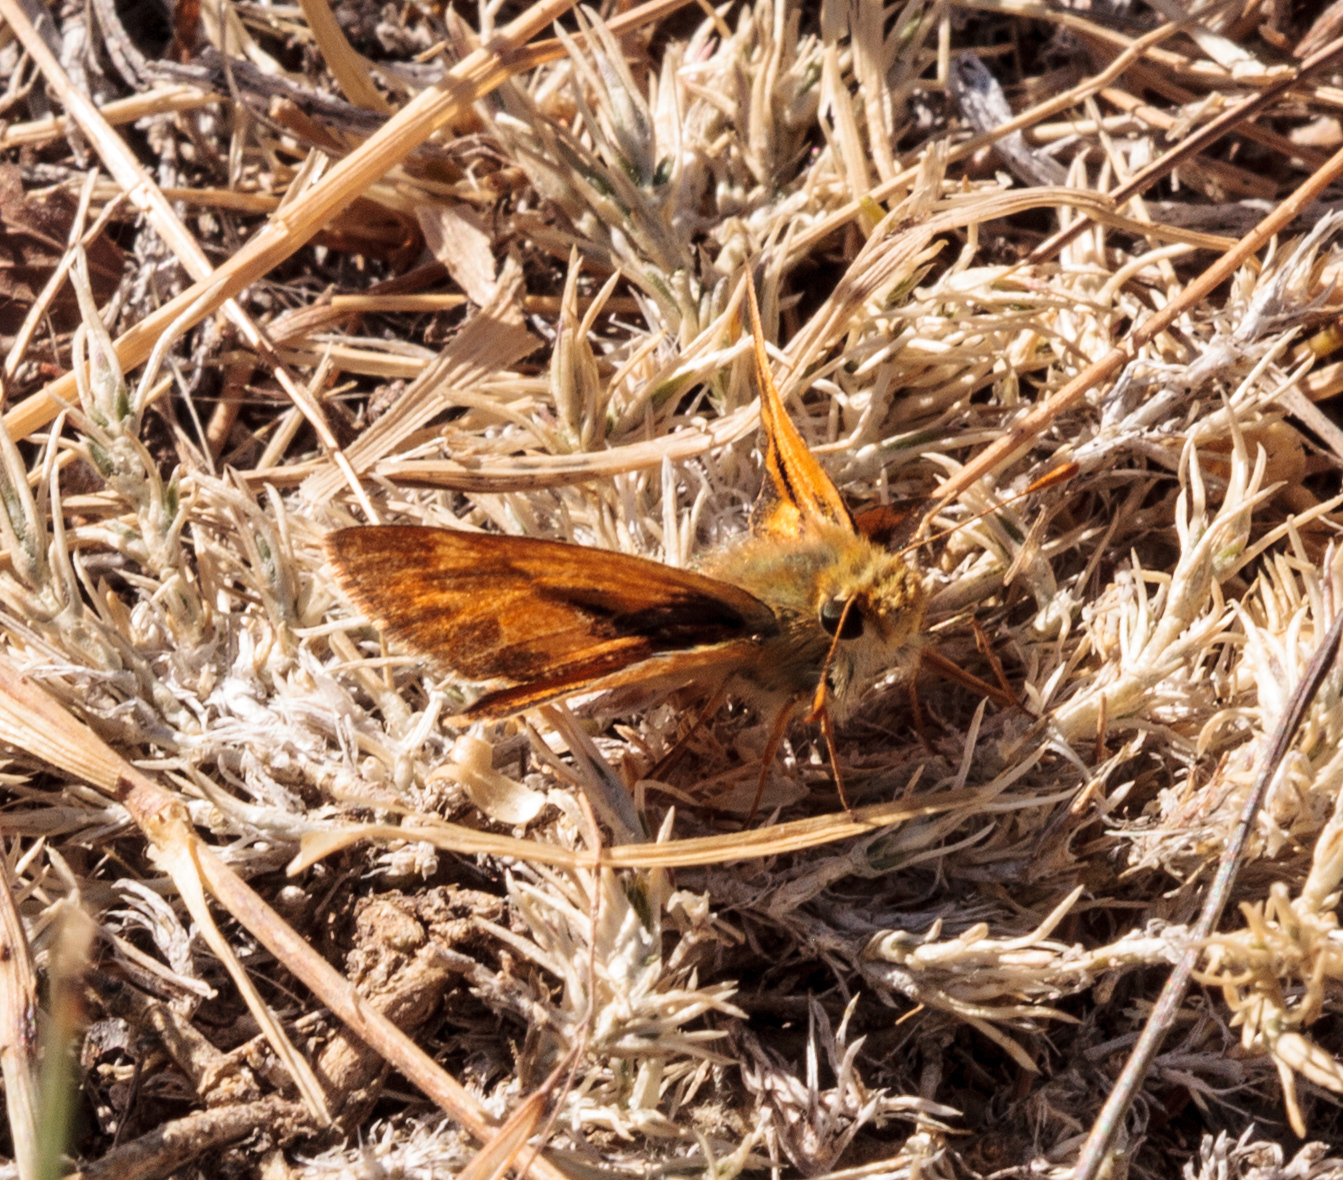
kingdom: Animalia
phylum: Arthropoda
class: Insecta
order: Lepidoptera
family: Hesperiidae
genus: Ochlodes
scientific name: Ochlodes sylvanoides
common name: Woodland skipper
